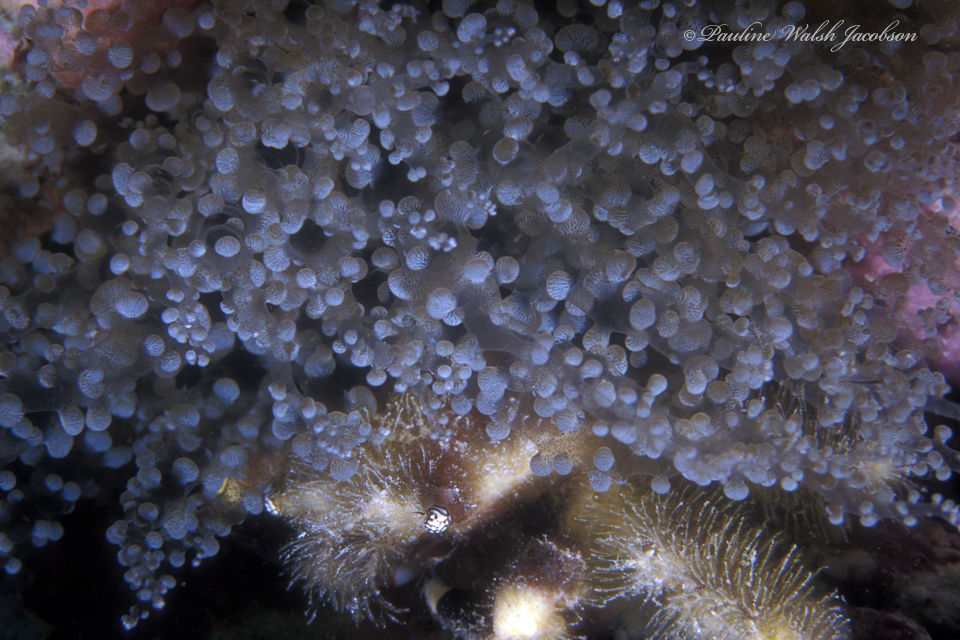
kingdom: Animalia
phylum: Cnidaria
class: Anthozoa
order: Actiniaria
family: Aiptasiidae
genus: Laviactis
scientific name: Laviactis lucida
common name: Atlantic beaded anemone
